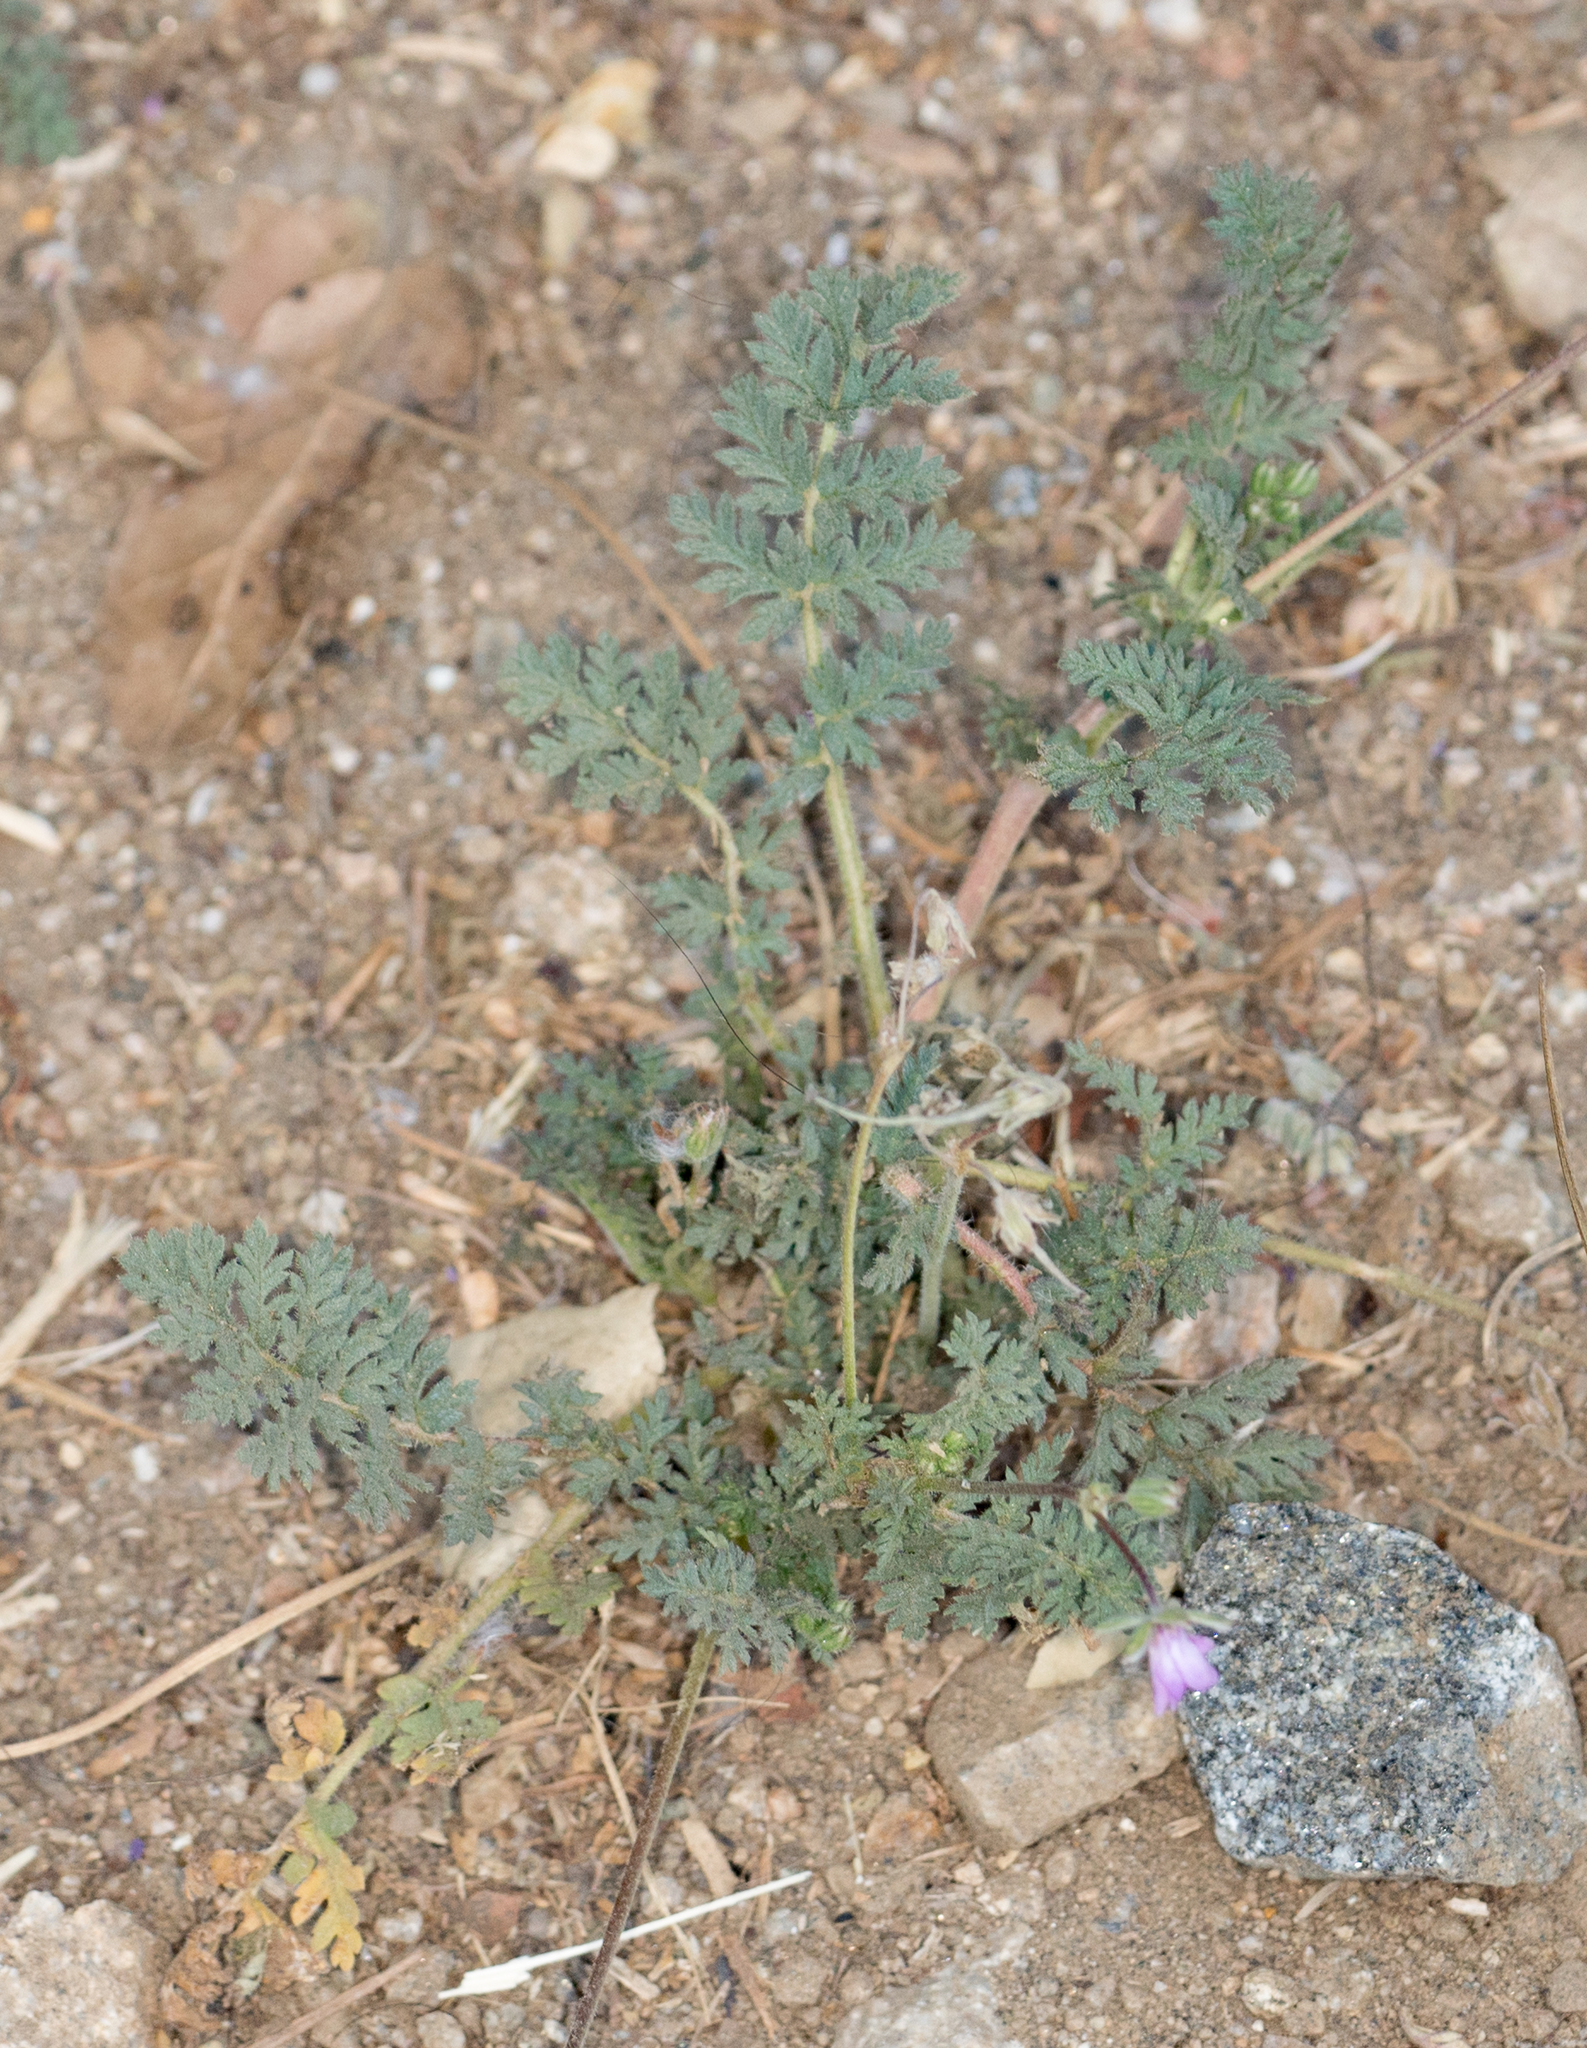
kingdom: Plantae
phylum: Tracheophyta
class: Magnoliopsida
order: Geraniales
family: Geraniaceae
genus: Erodium
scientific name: Erodium cicutarium
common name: Common stork's-bill
